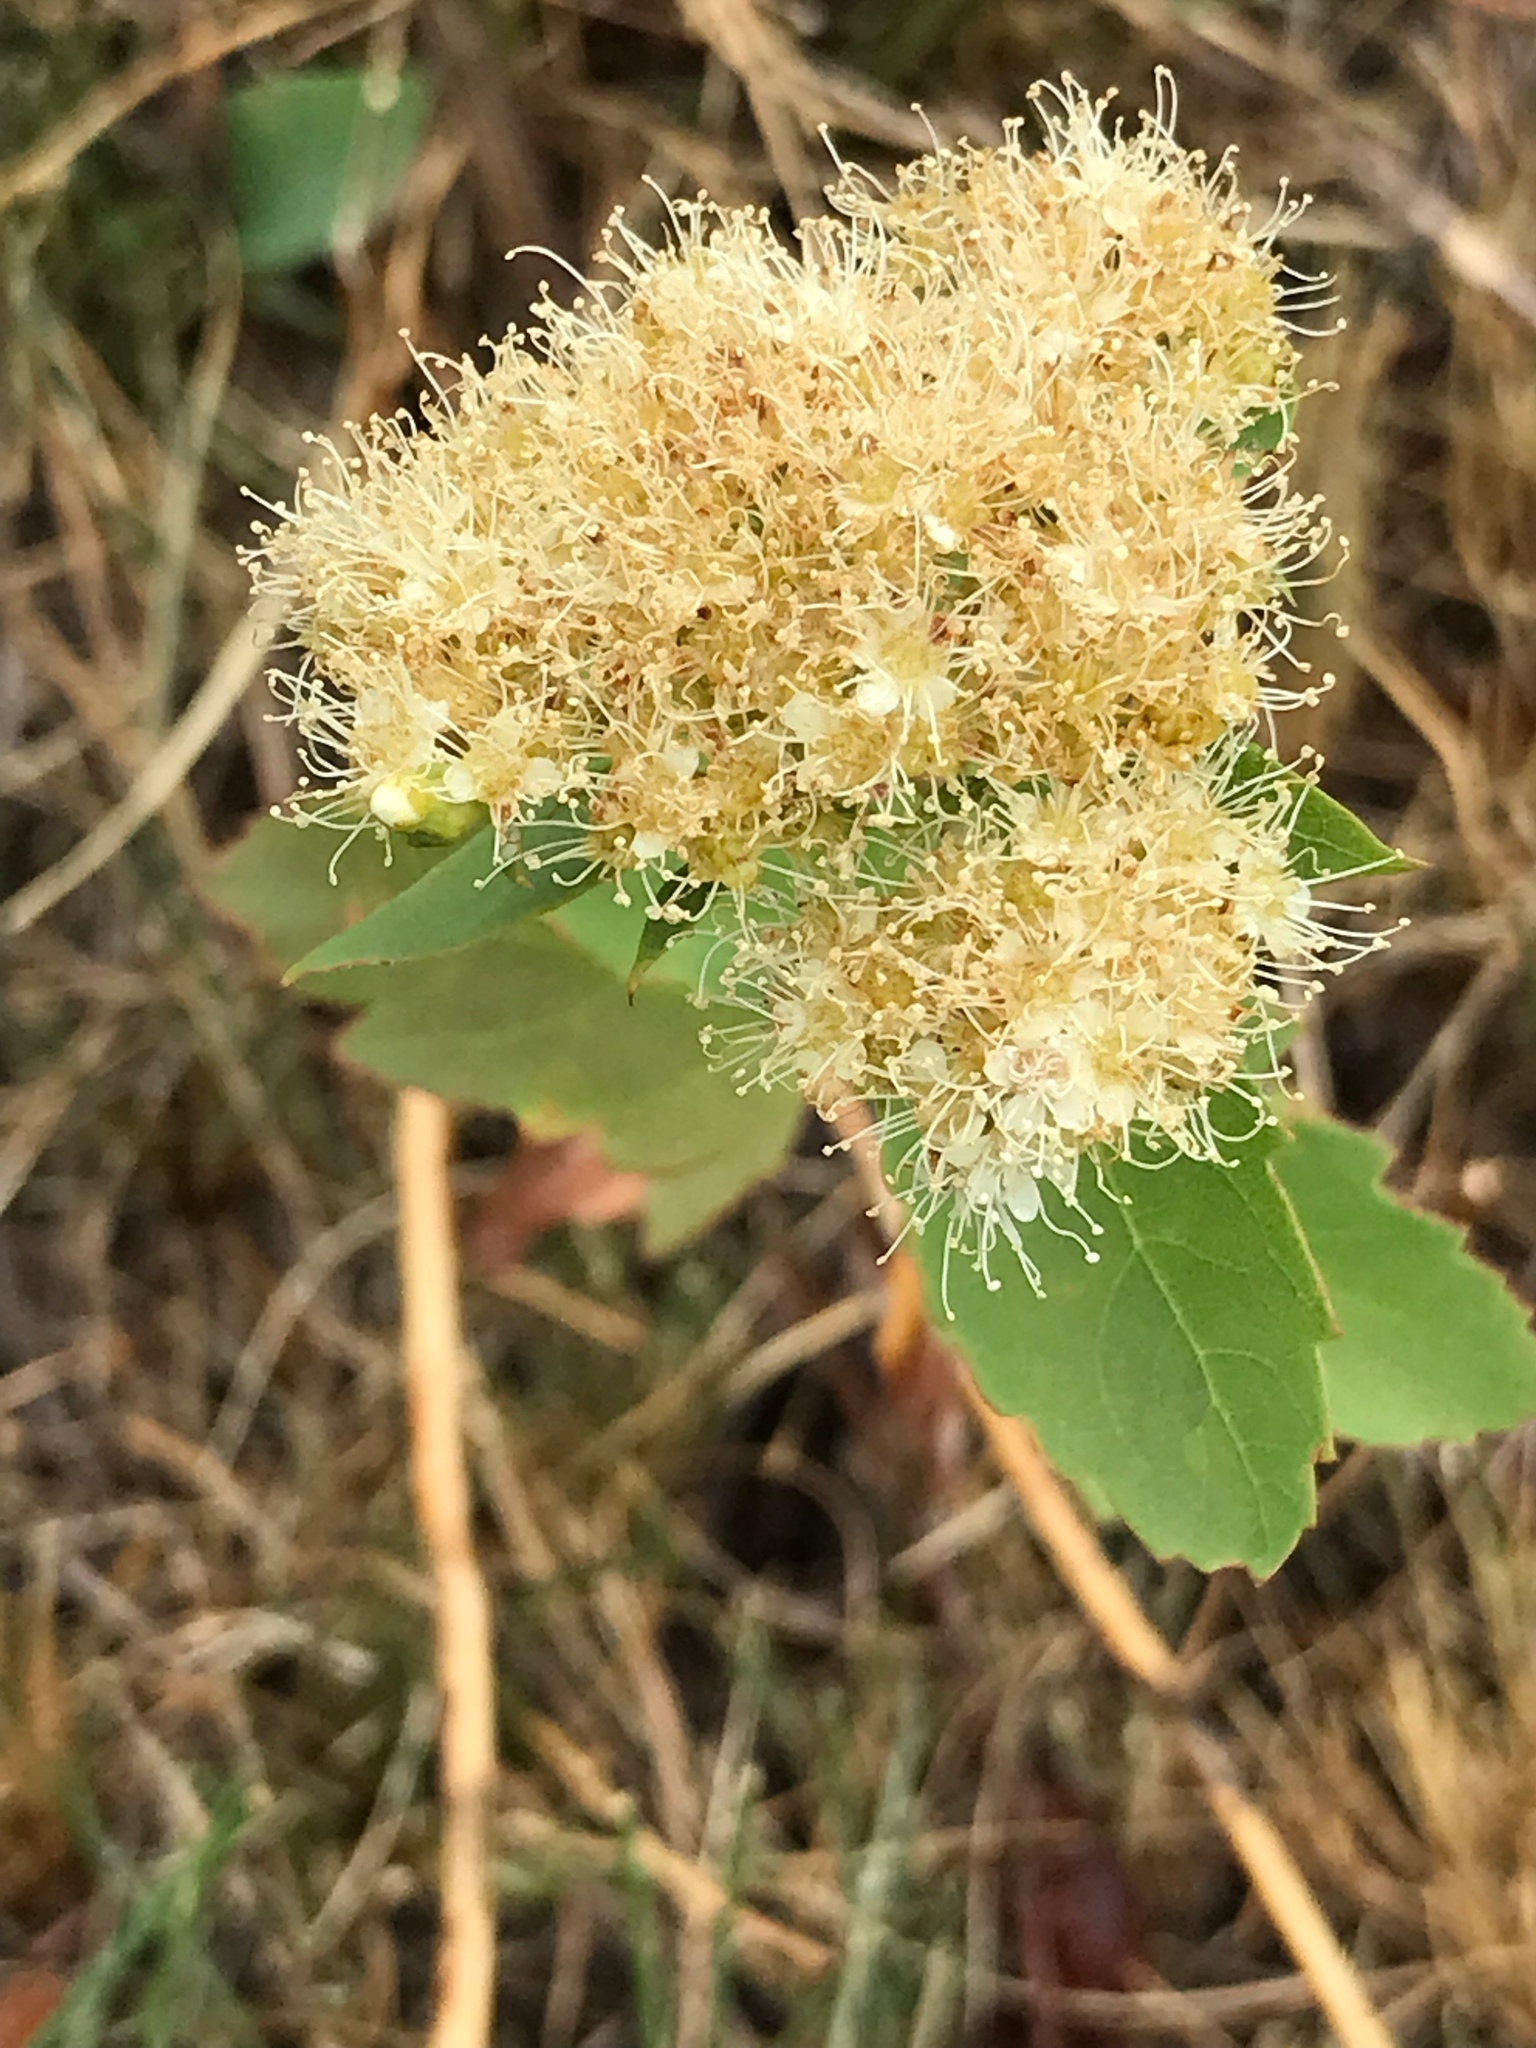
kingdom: Plantae
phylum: Tracheophyta
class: Magnoliopsida
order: Rosales
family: Rosaceae
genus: Spiraea
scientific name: Spiraea lucida
